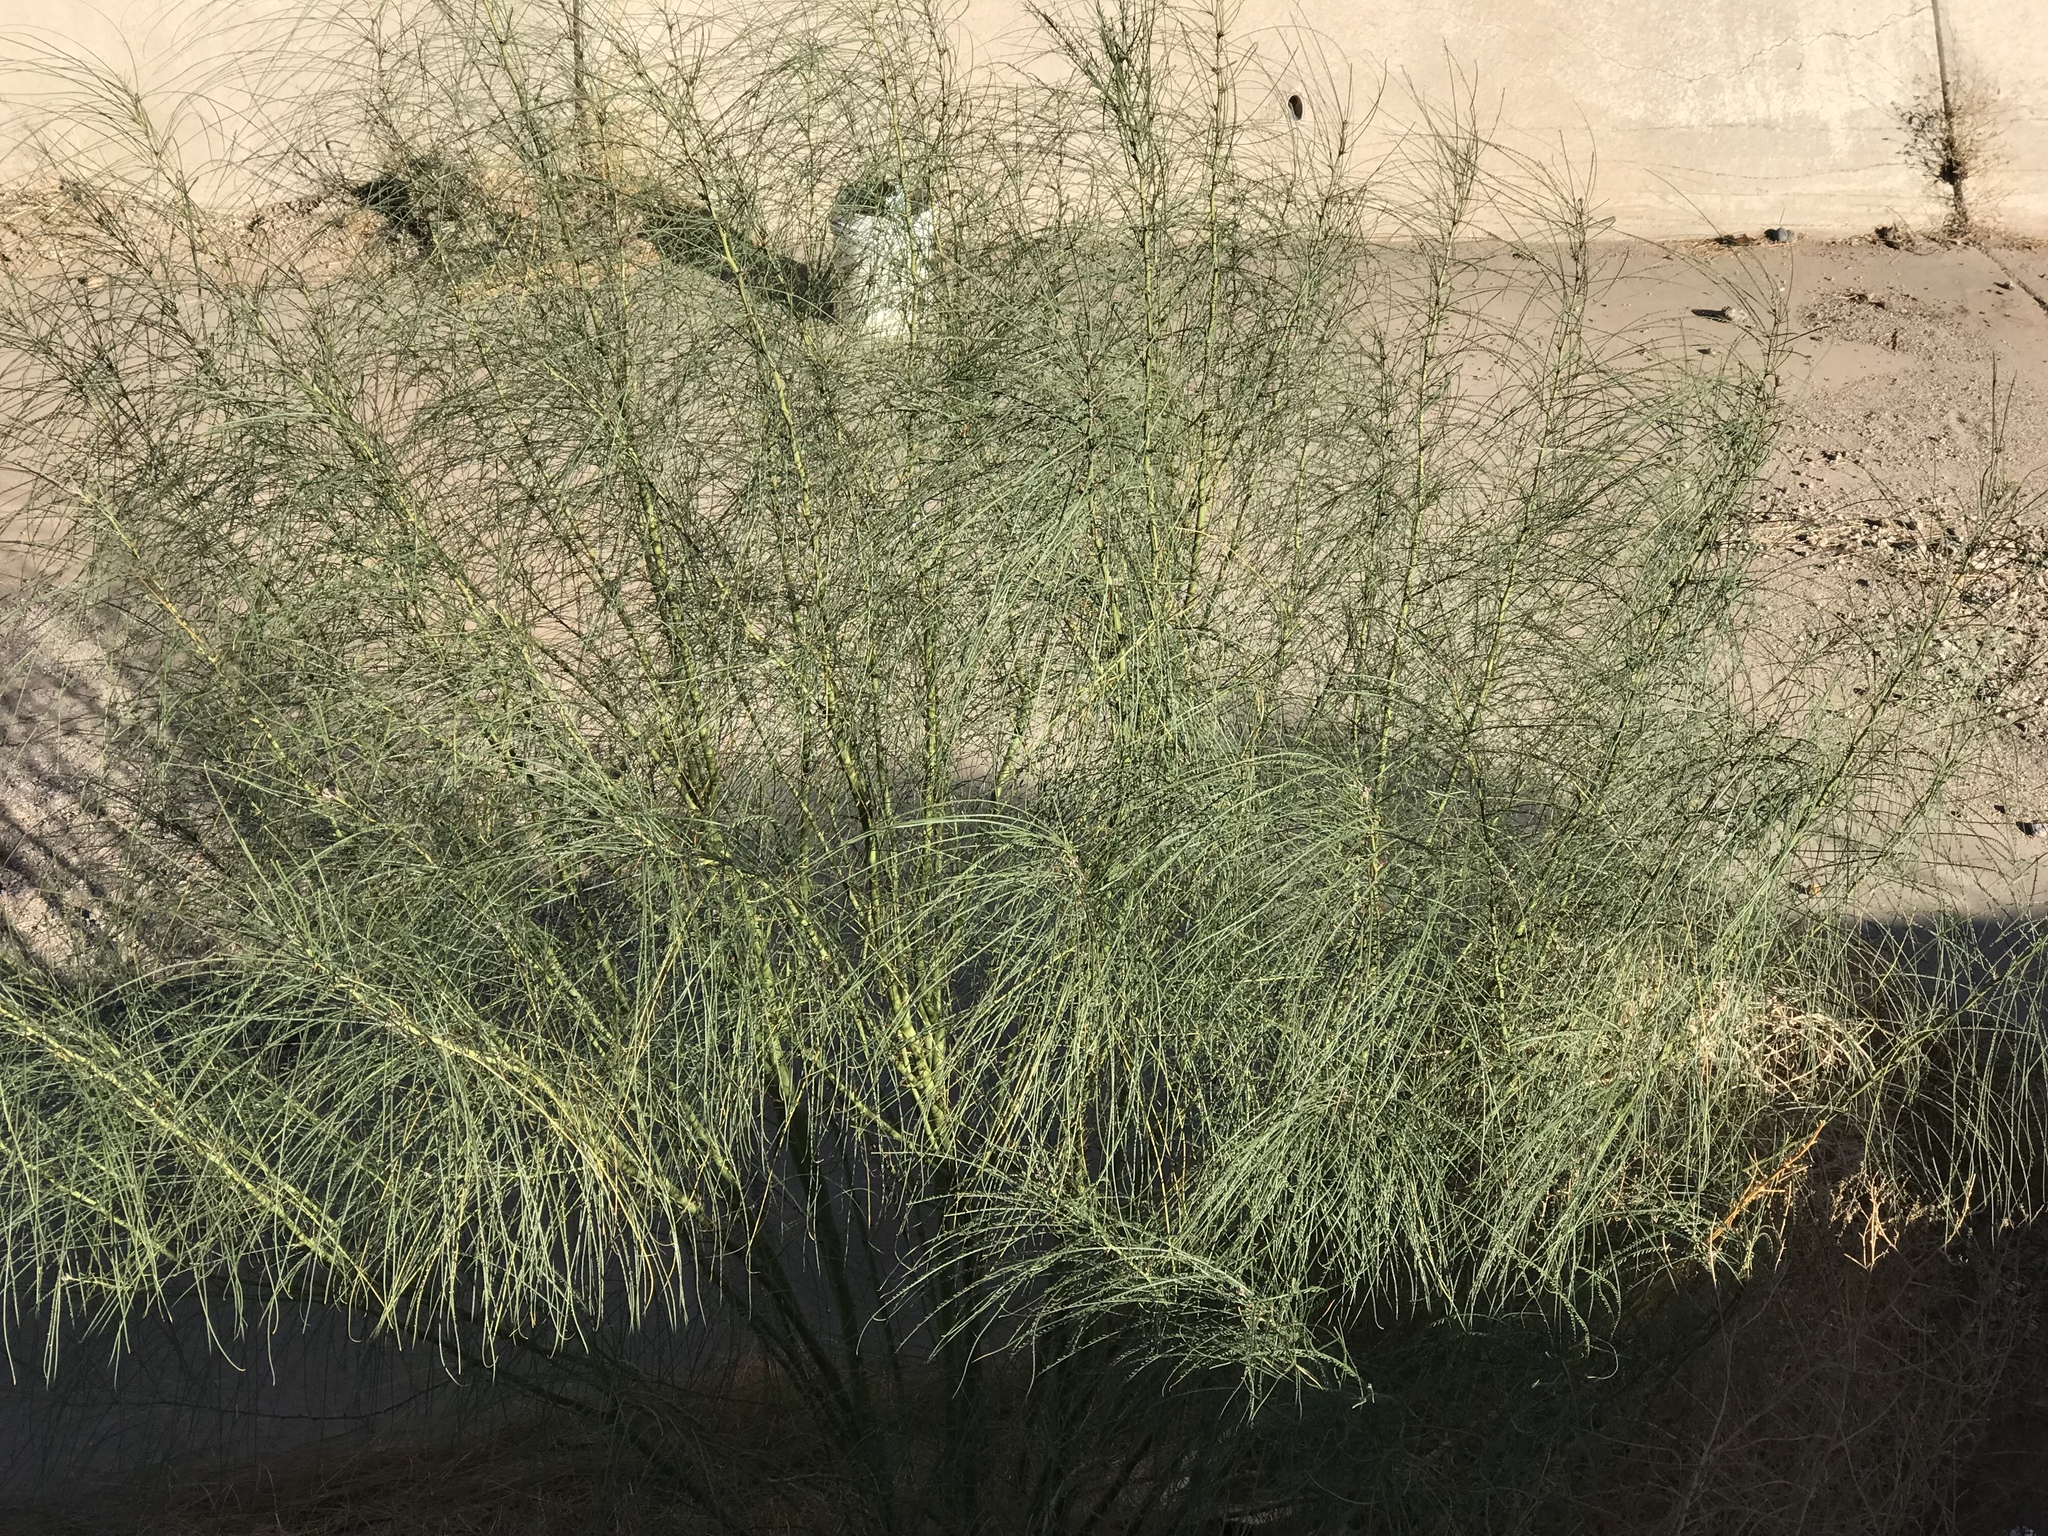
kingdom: Plantae
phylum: Tracheophyta
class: Magnoliopsida
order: Fabales
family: Fabaceae
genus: Parkinsonia
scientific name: Parkinsonia aculeata
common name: Jerusalem thorn
